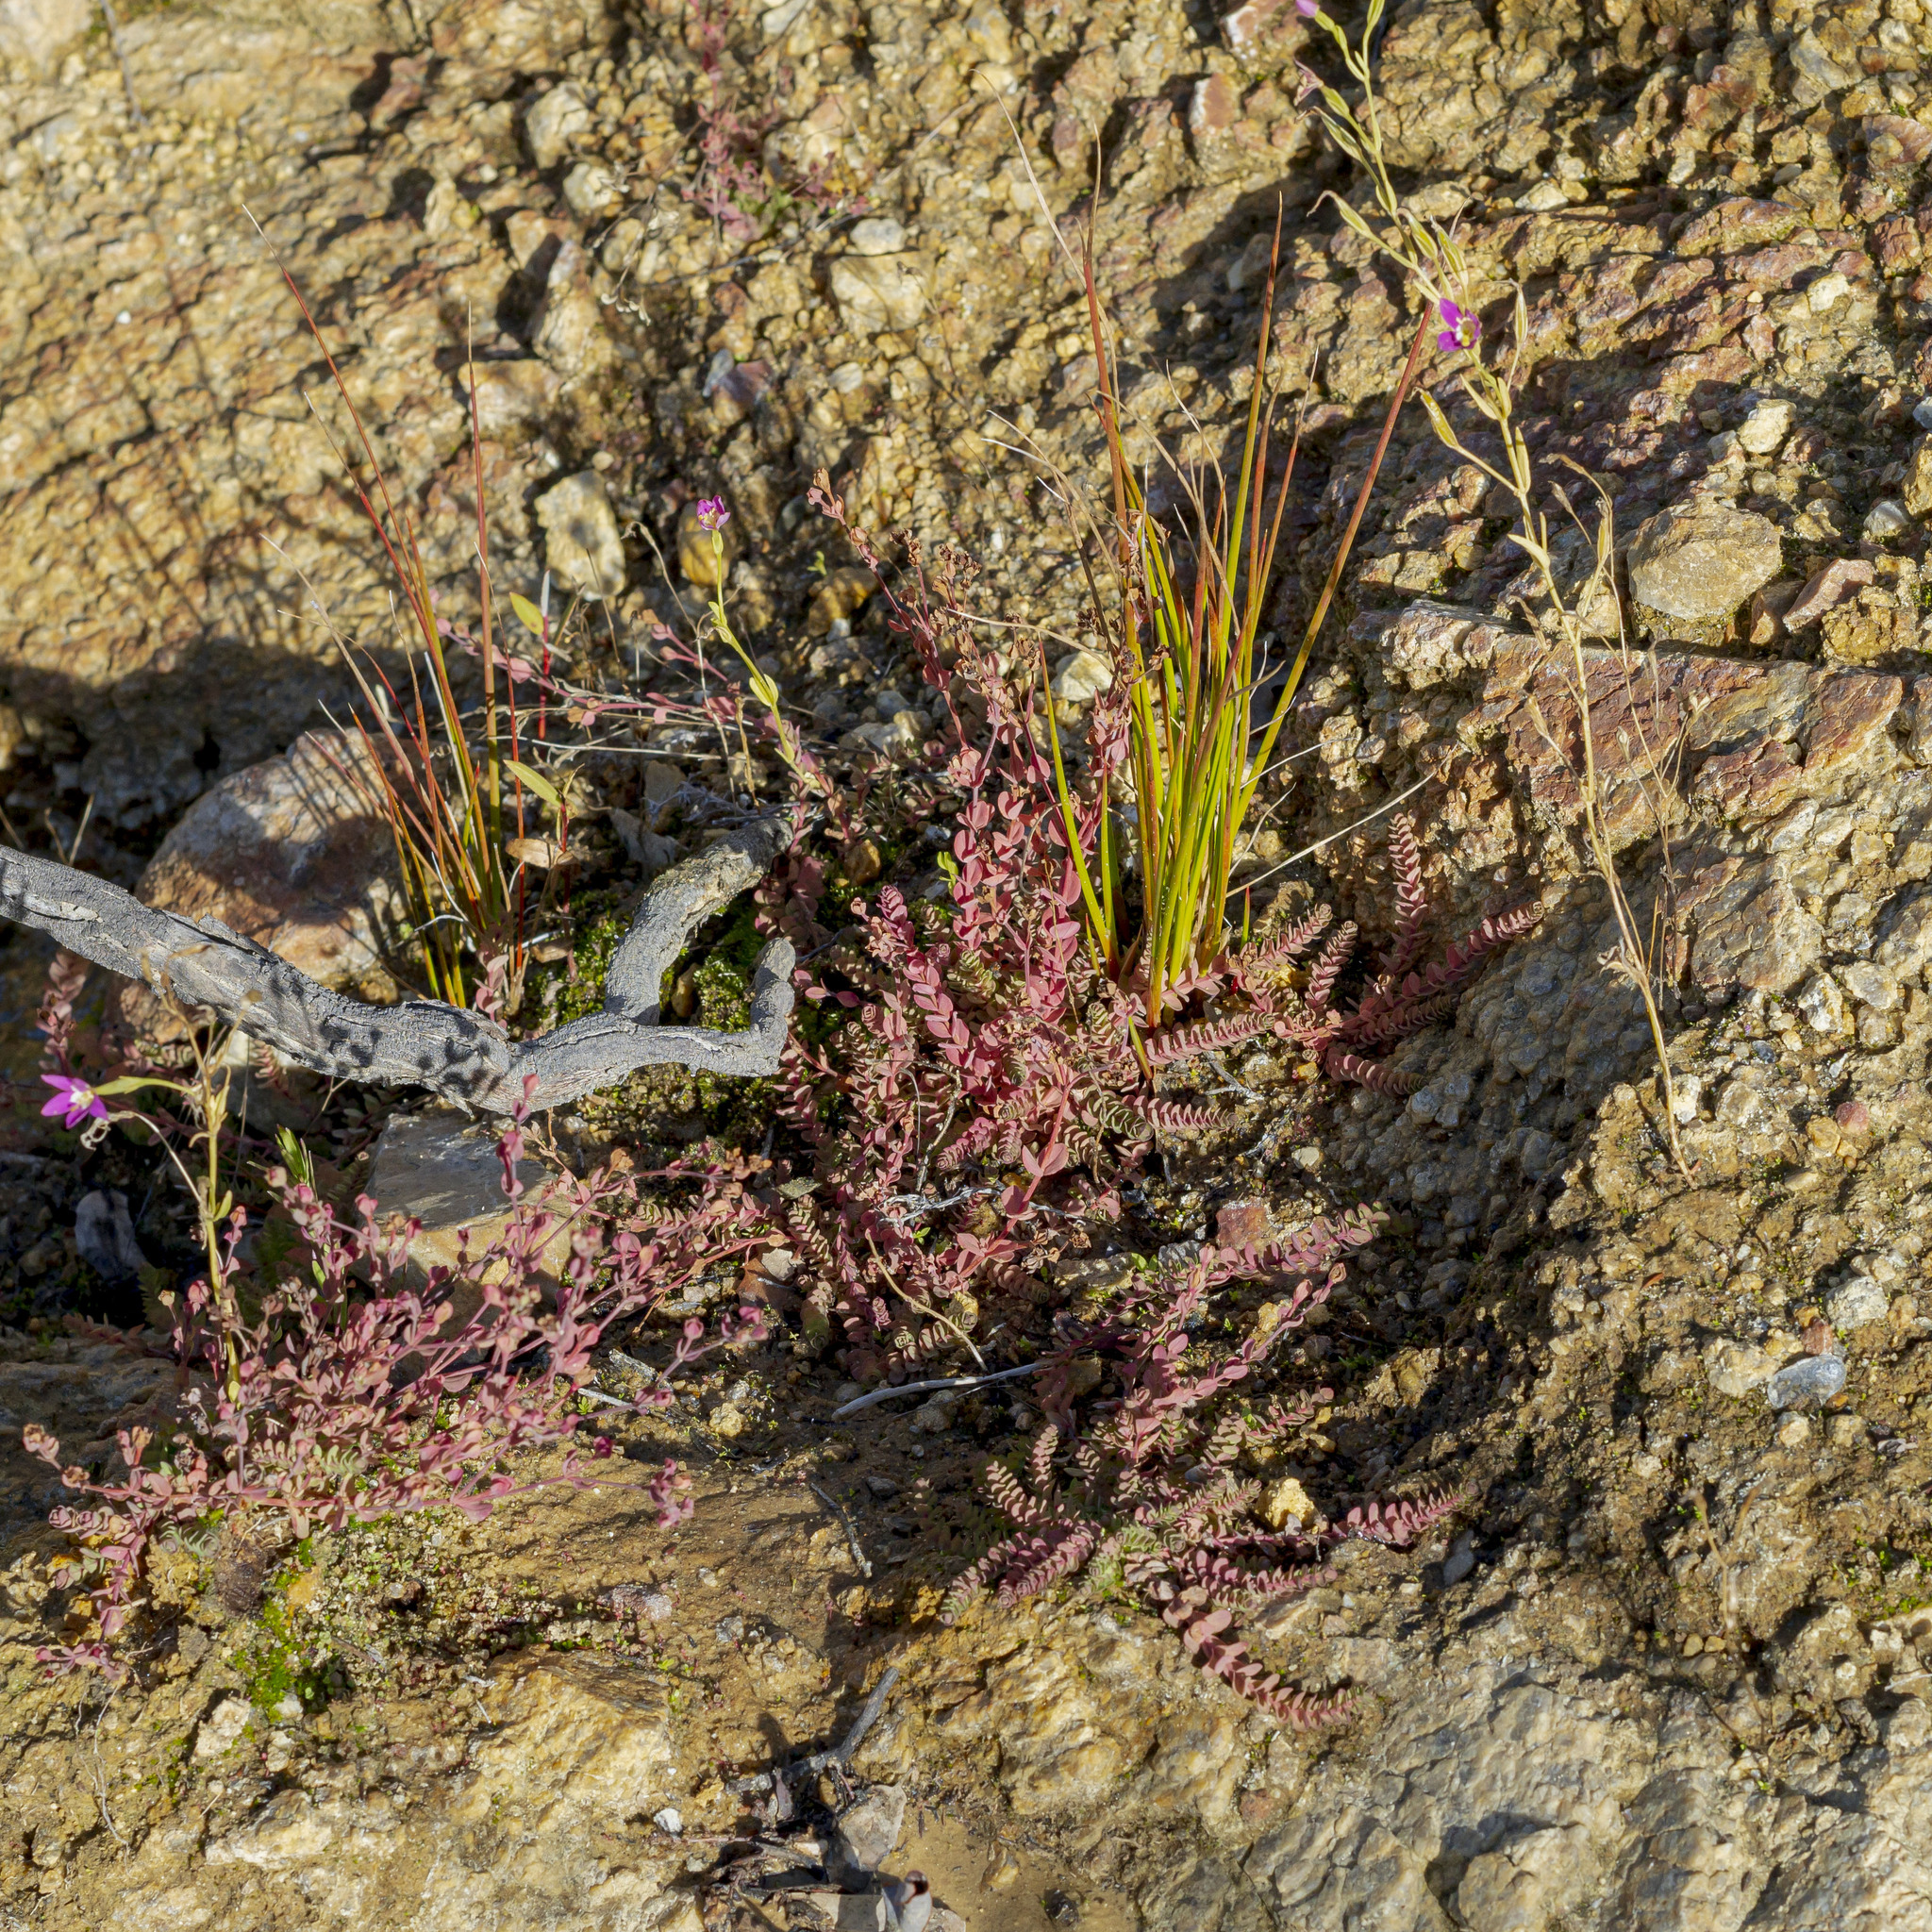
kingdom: Plantae
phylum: Tracheophyta
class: Magnoliopsida
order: Malpighiales
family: Hypericaceae
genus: Hypericum
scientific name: Hypericum anagalloides
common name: Bog st. john's-wort
